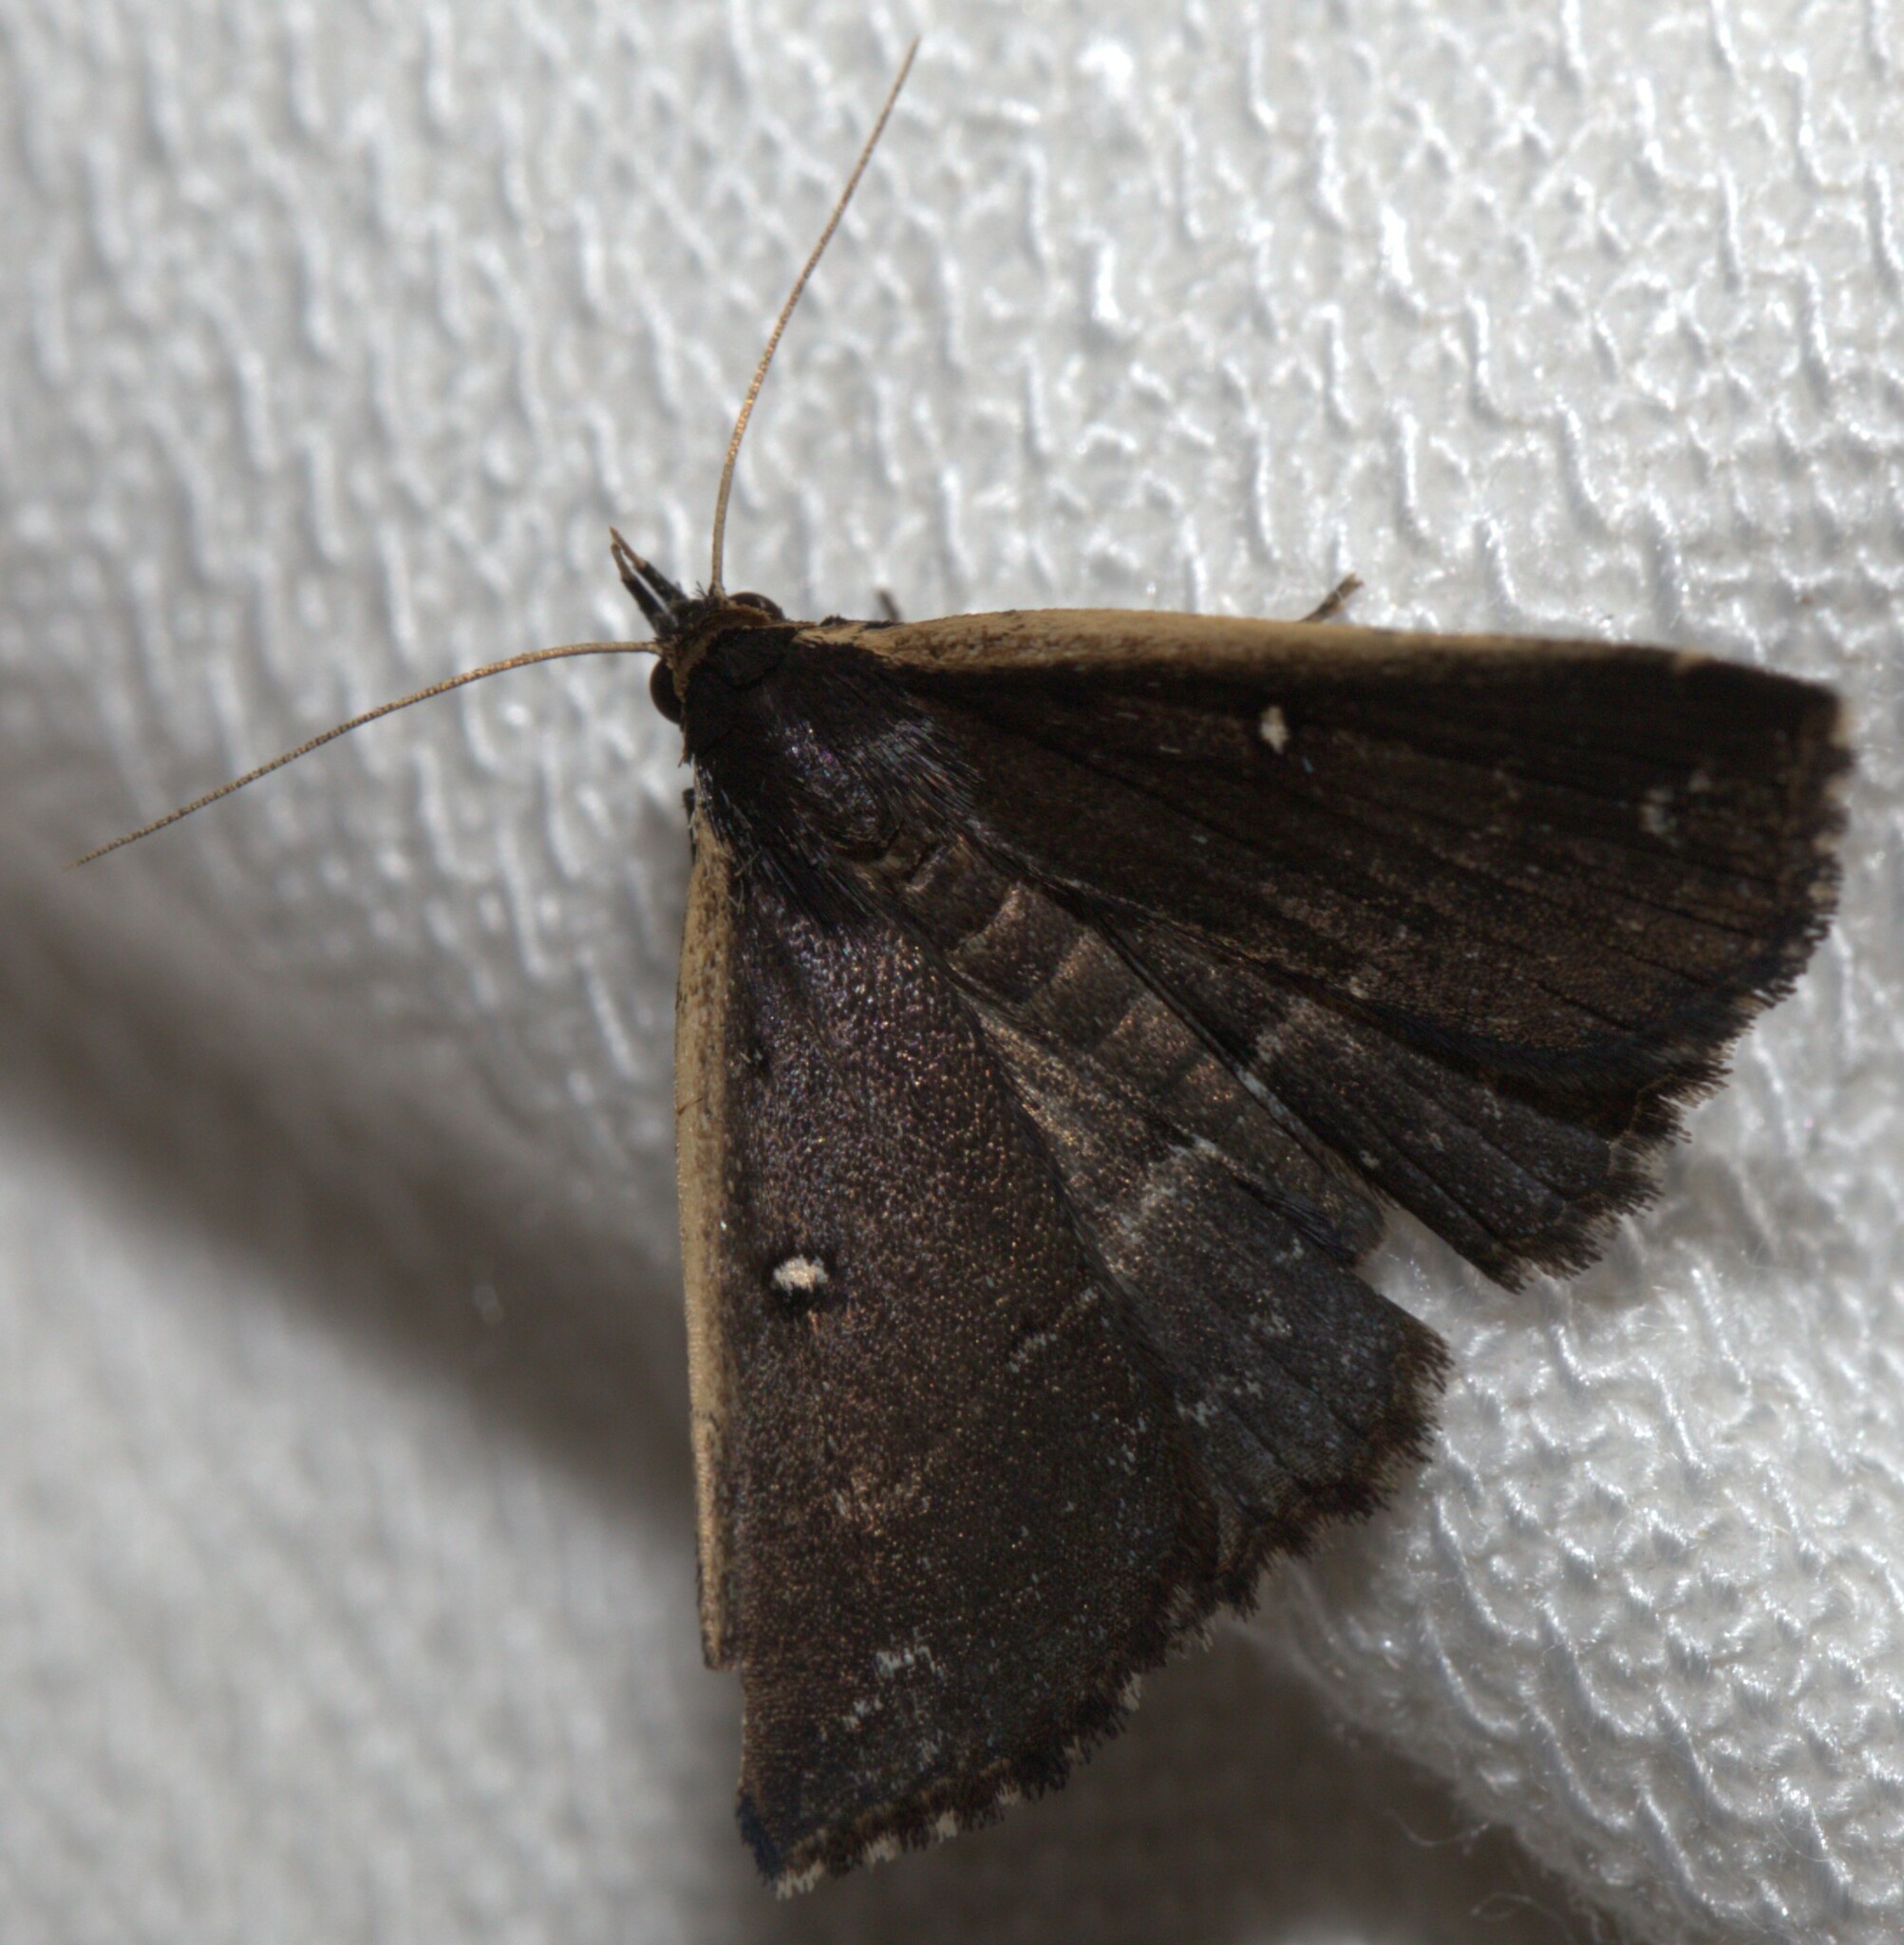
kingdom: Animalia
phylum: Arthropoda
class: Insecta
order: Lepidoptera
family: Erebidae
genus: Adrapsa
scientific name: Adrapsa ablualis
